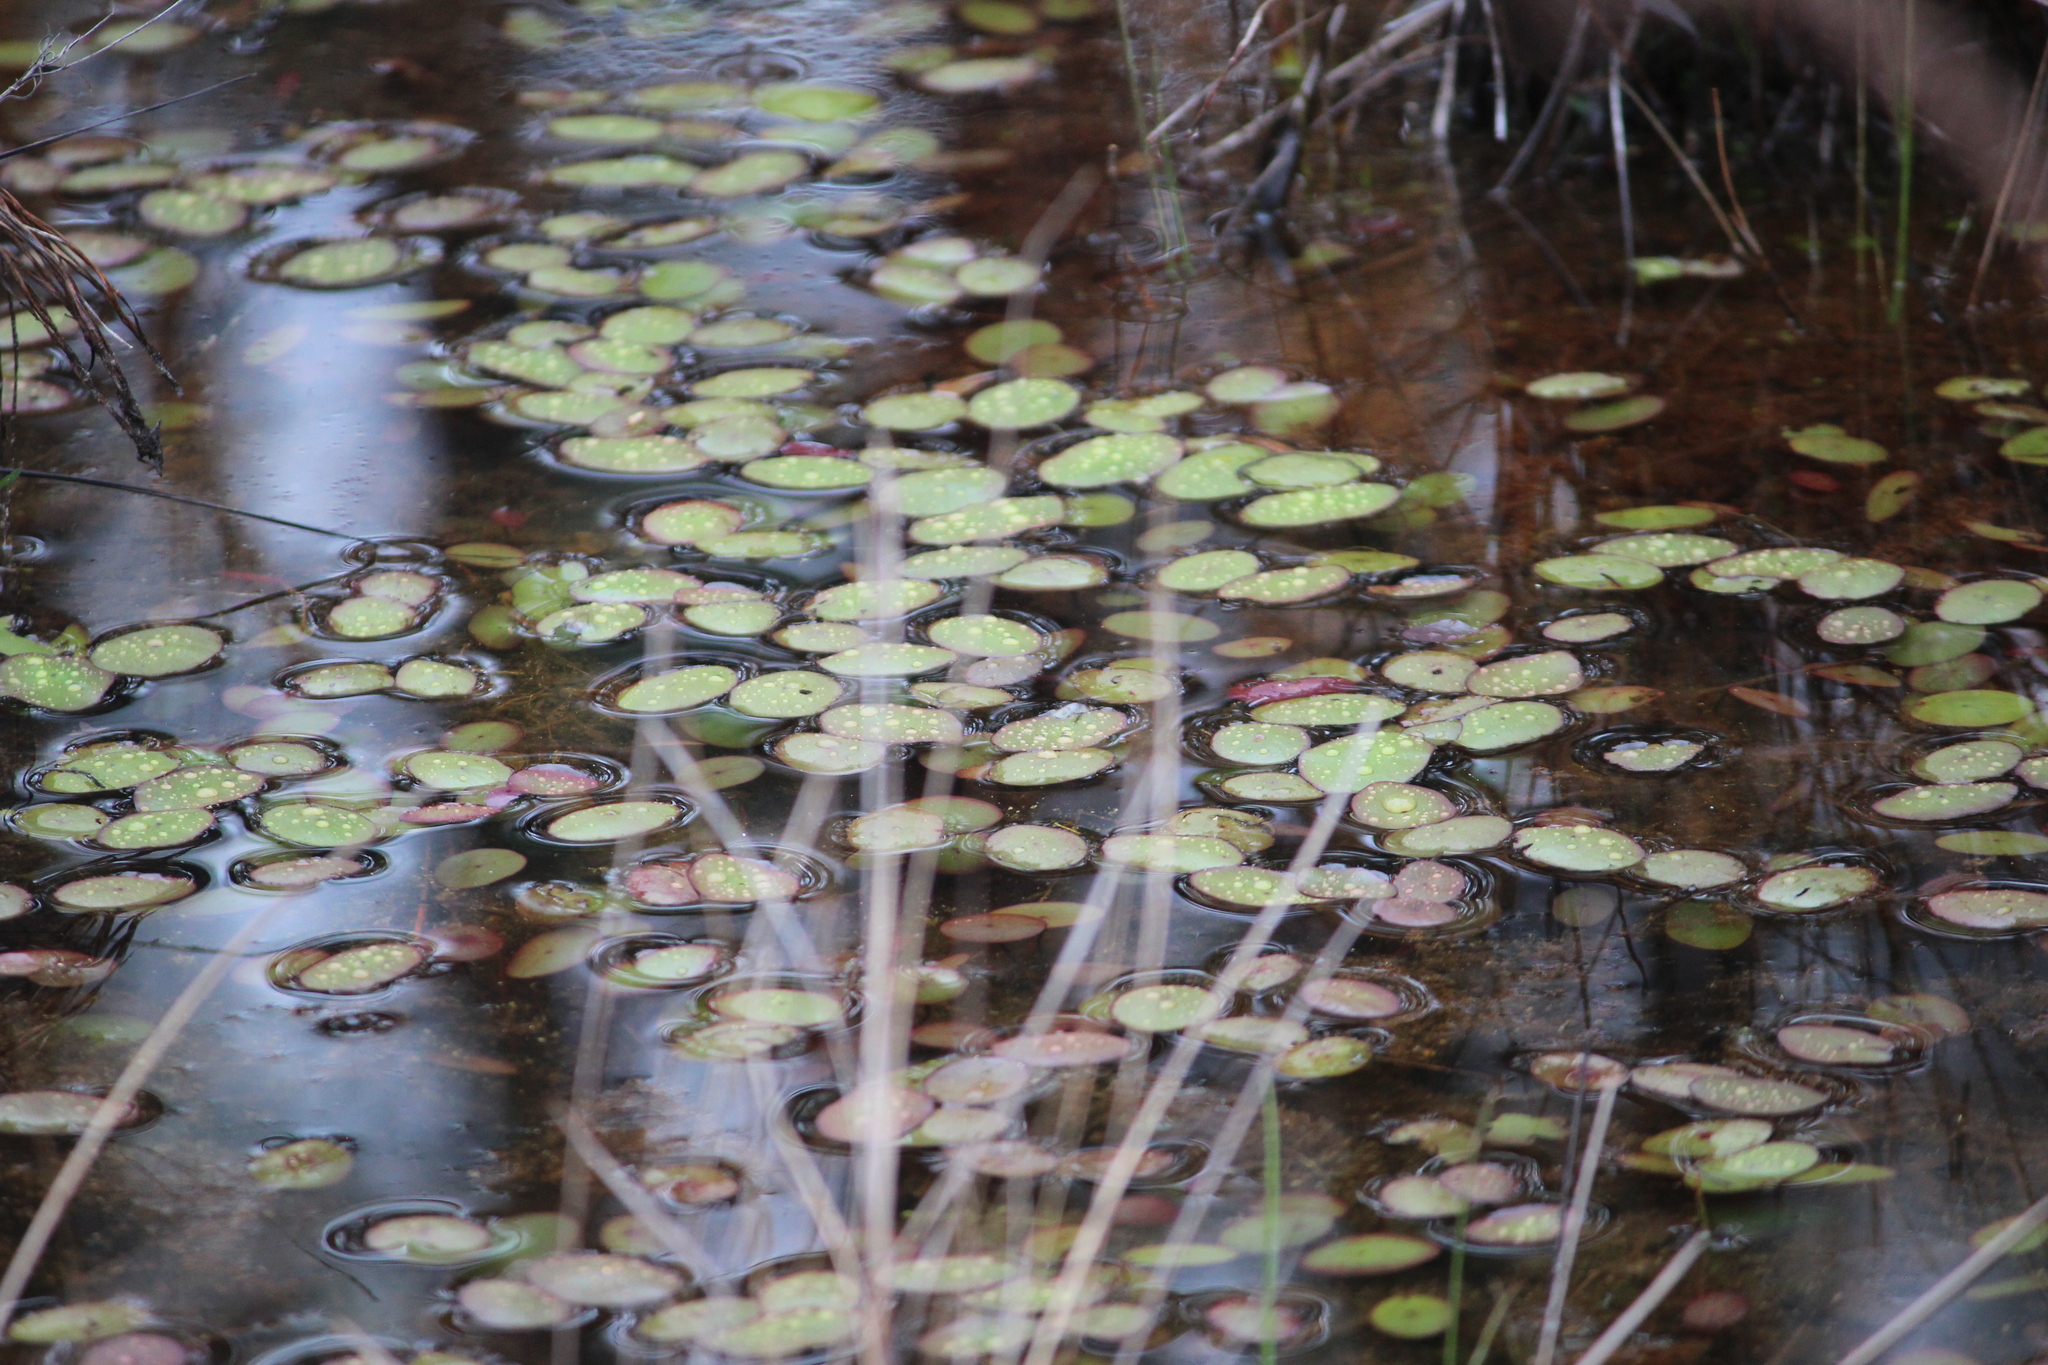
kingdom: Plantae
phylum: Tracheophyta
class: Magnoliopsida
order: Nymphaeales
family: Cabombaceae
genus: Brasenia
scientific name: Brasenia schreberi
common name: Water-shield
